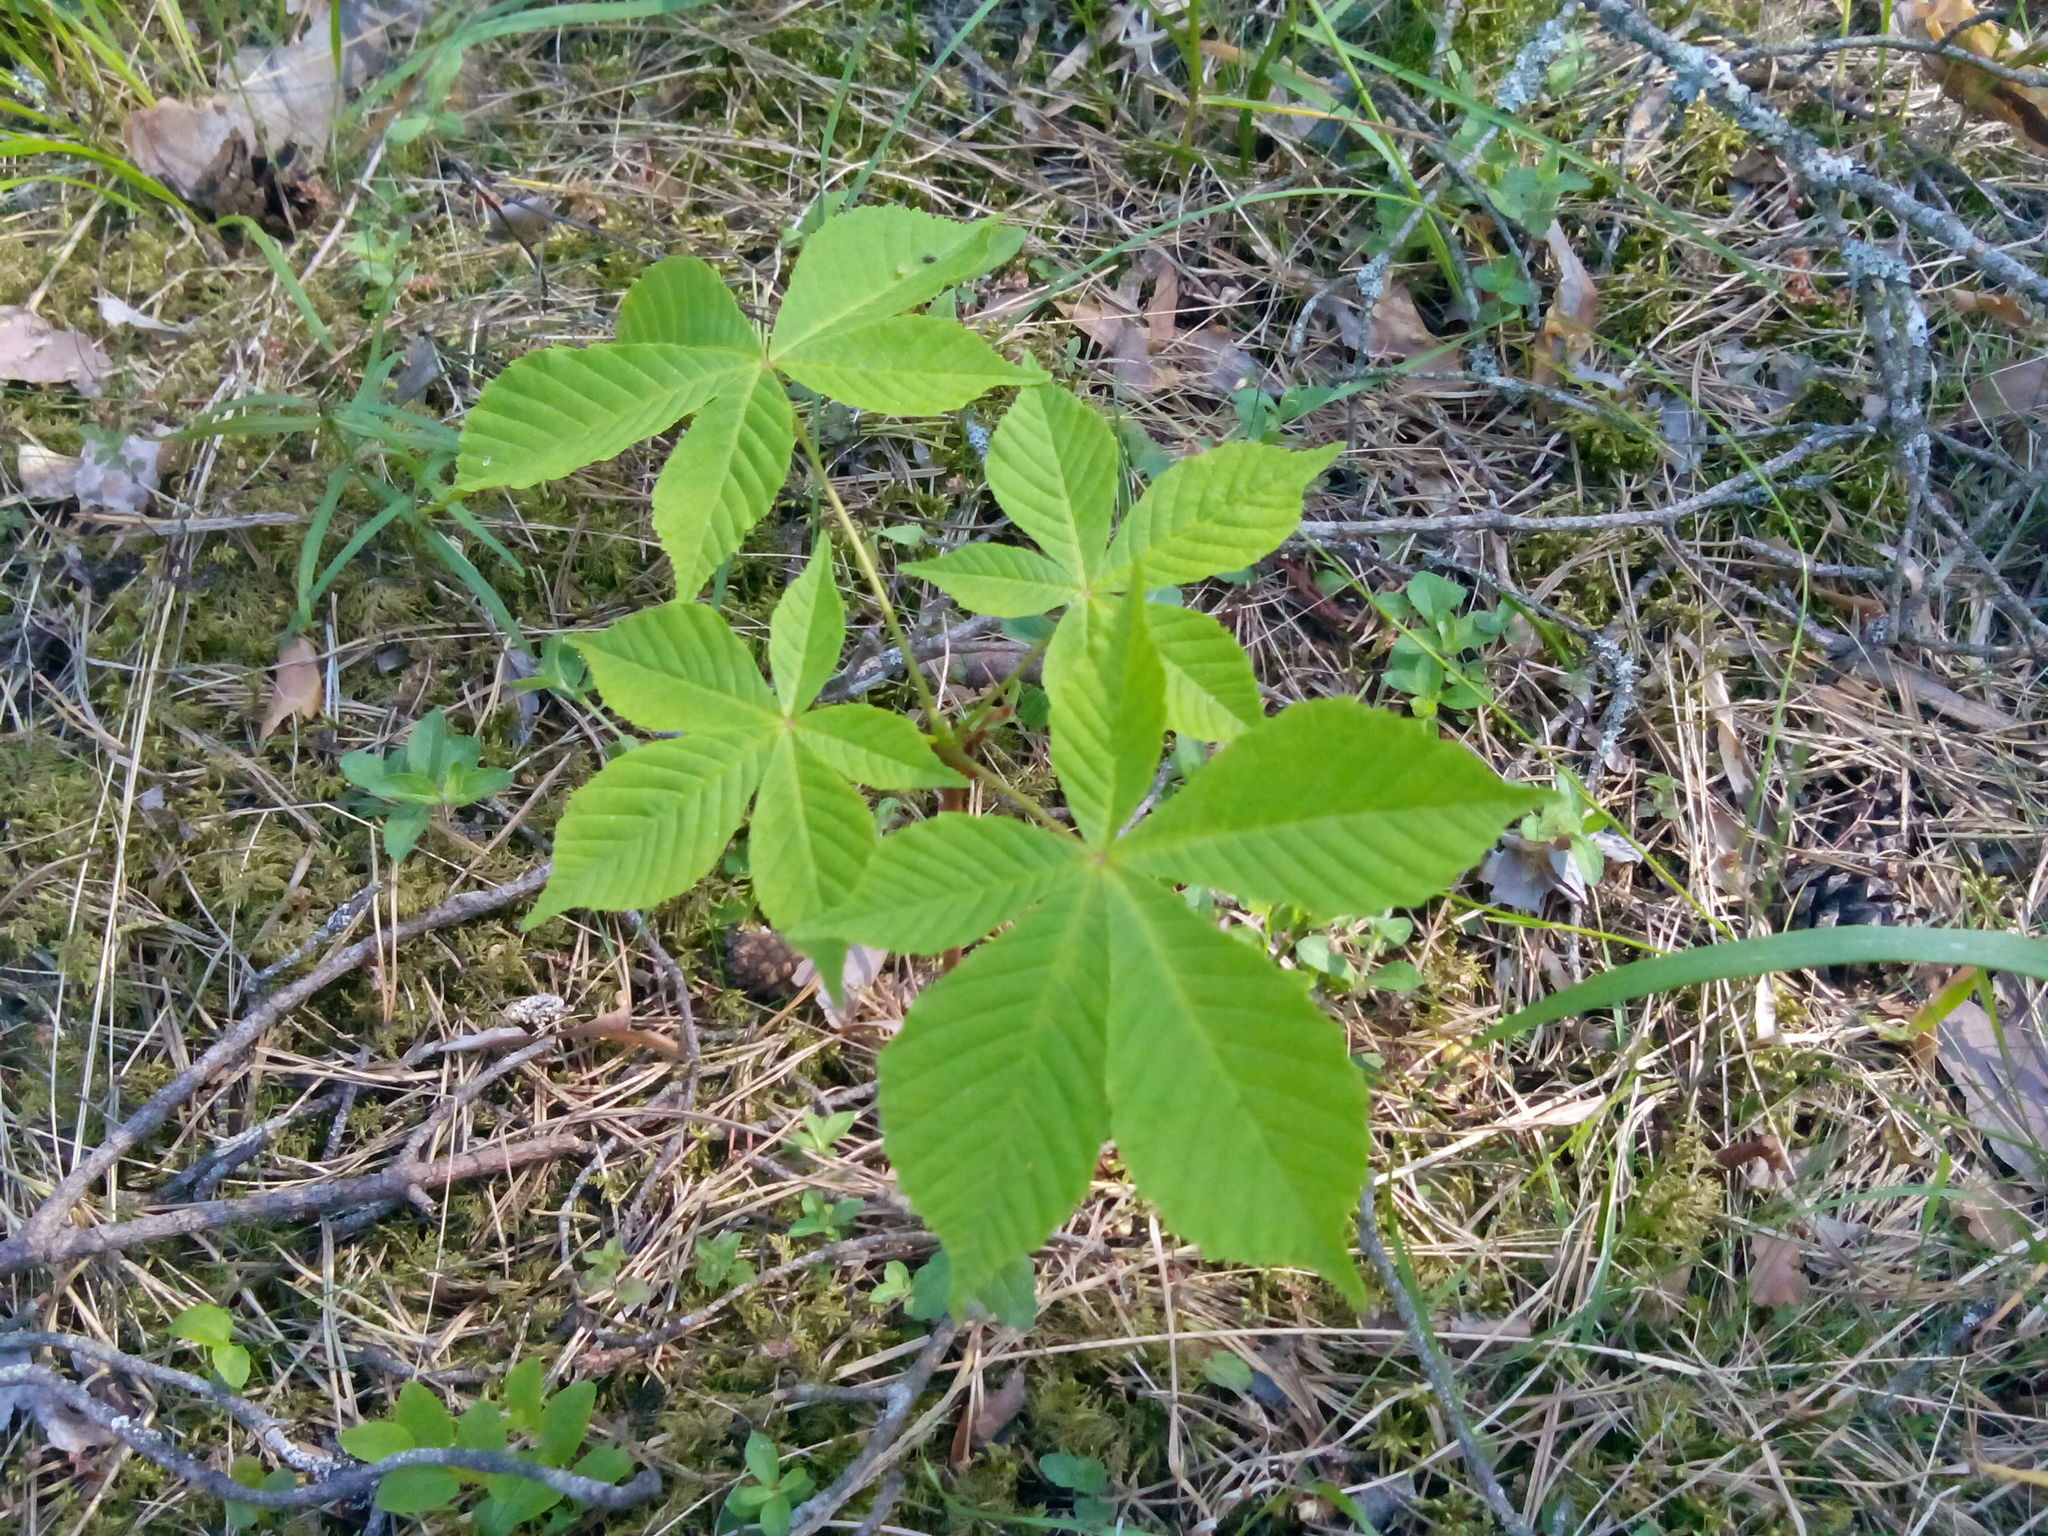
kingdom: Plantae
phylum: Tracheophyta
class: Magnoliopsida
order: Sapindales
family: Sapindaceae
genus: Aesculus
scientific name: Aesculus hippocastanum
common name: Horse-chestnut
